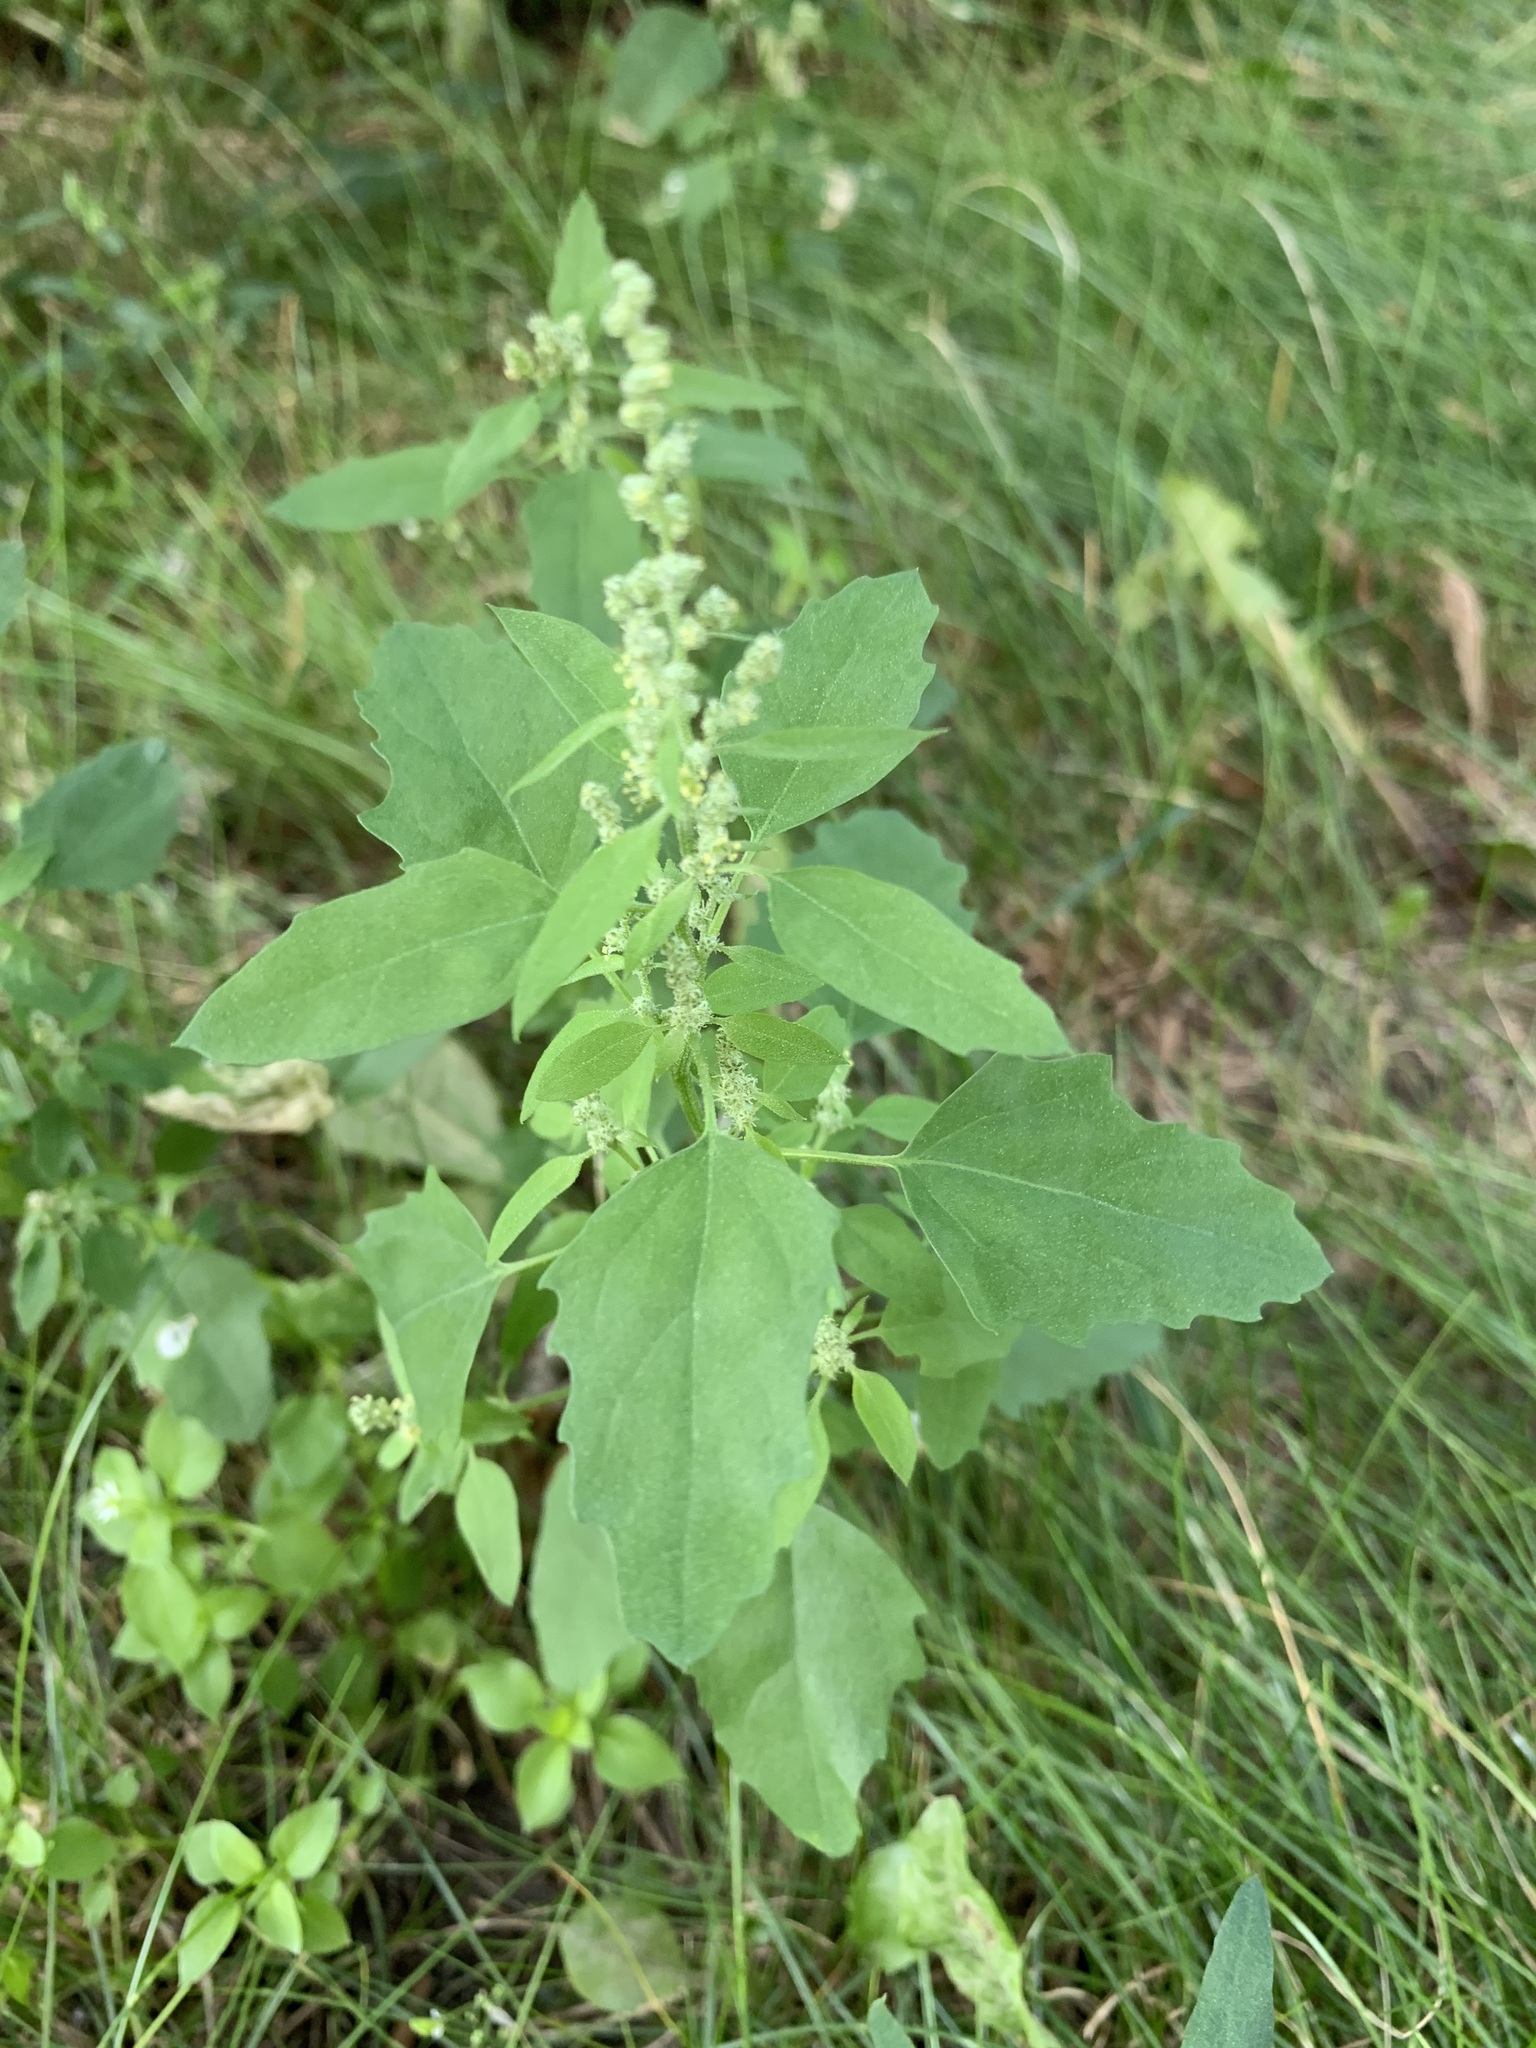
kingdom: Plantae
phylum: Tracheophyta
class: Magnoliopsida
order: Caryophyllales
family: Amaranthaceae
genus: Chenopodium
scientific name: Chenopodium album
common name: Fat-hen
